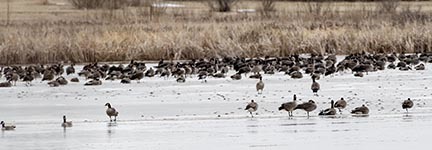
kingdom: Animalia
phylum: Chordata
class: Aves
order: Anseriformes
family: Anatidae
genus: Branta
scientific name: Branta canadensis
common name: Canada goose
